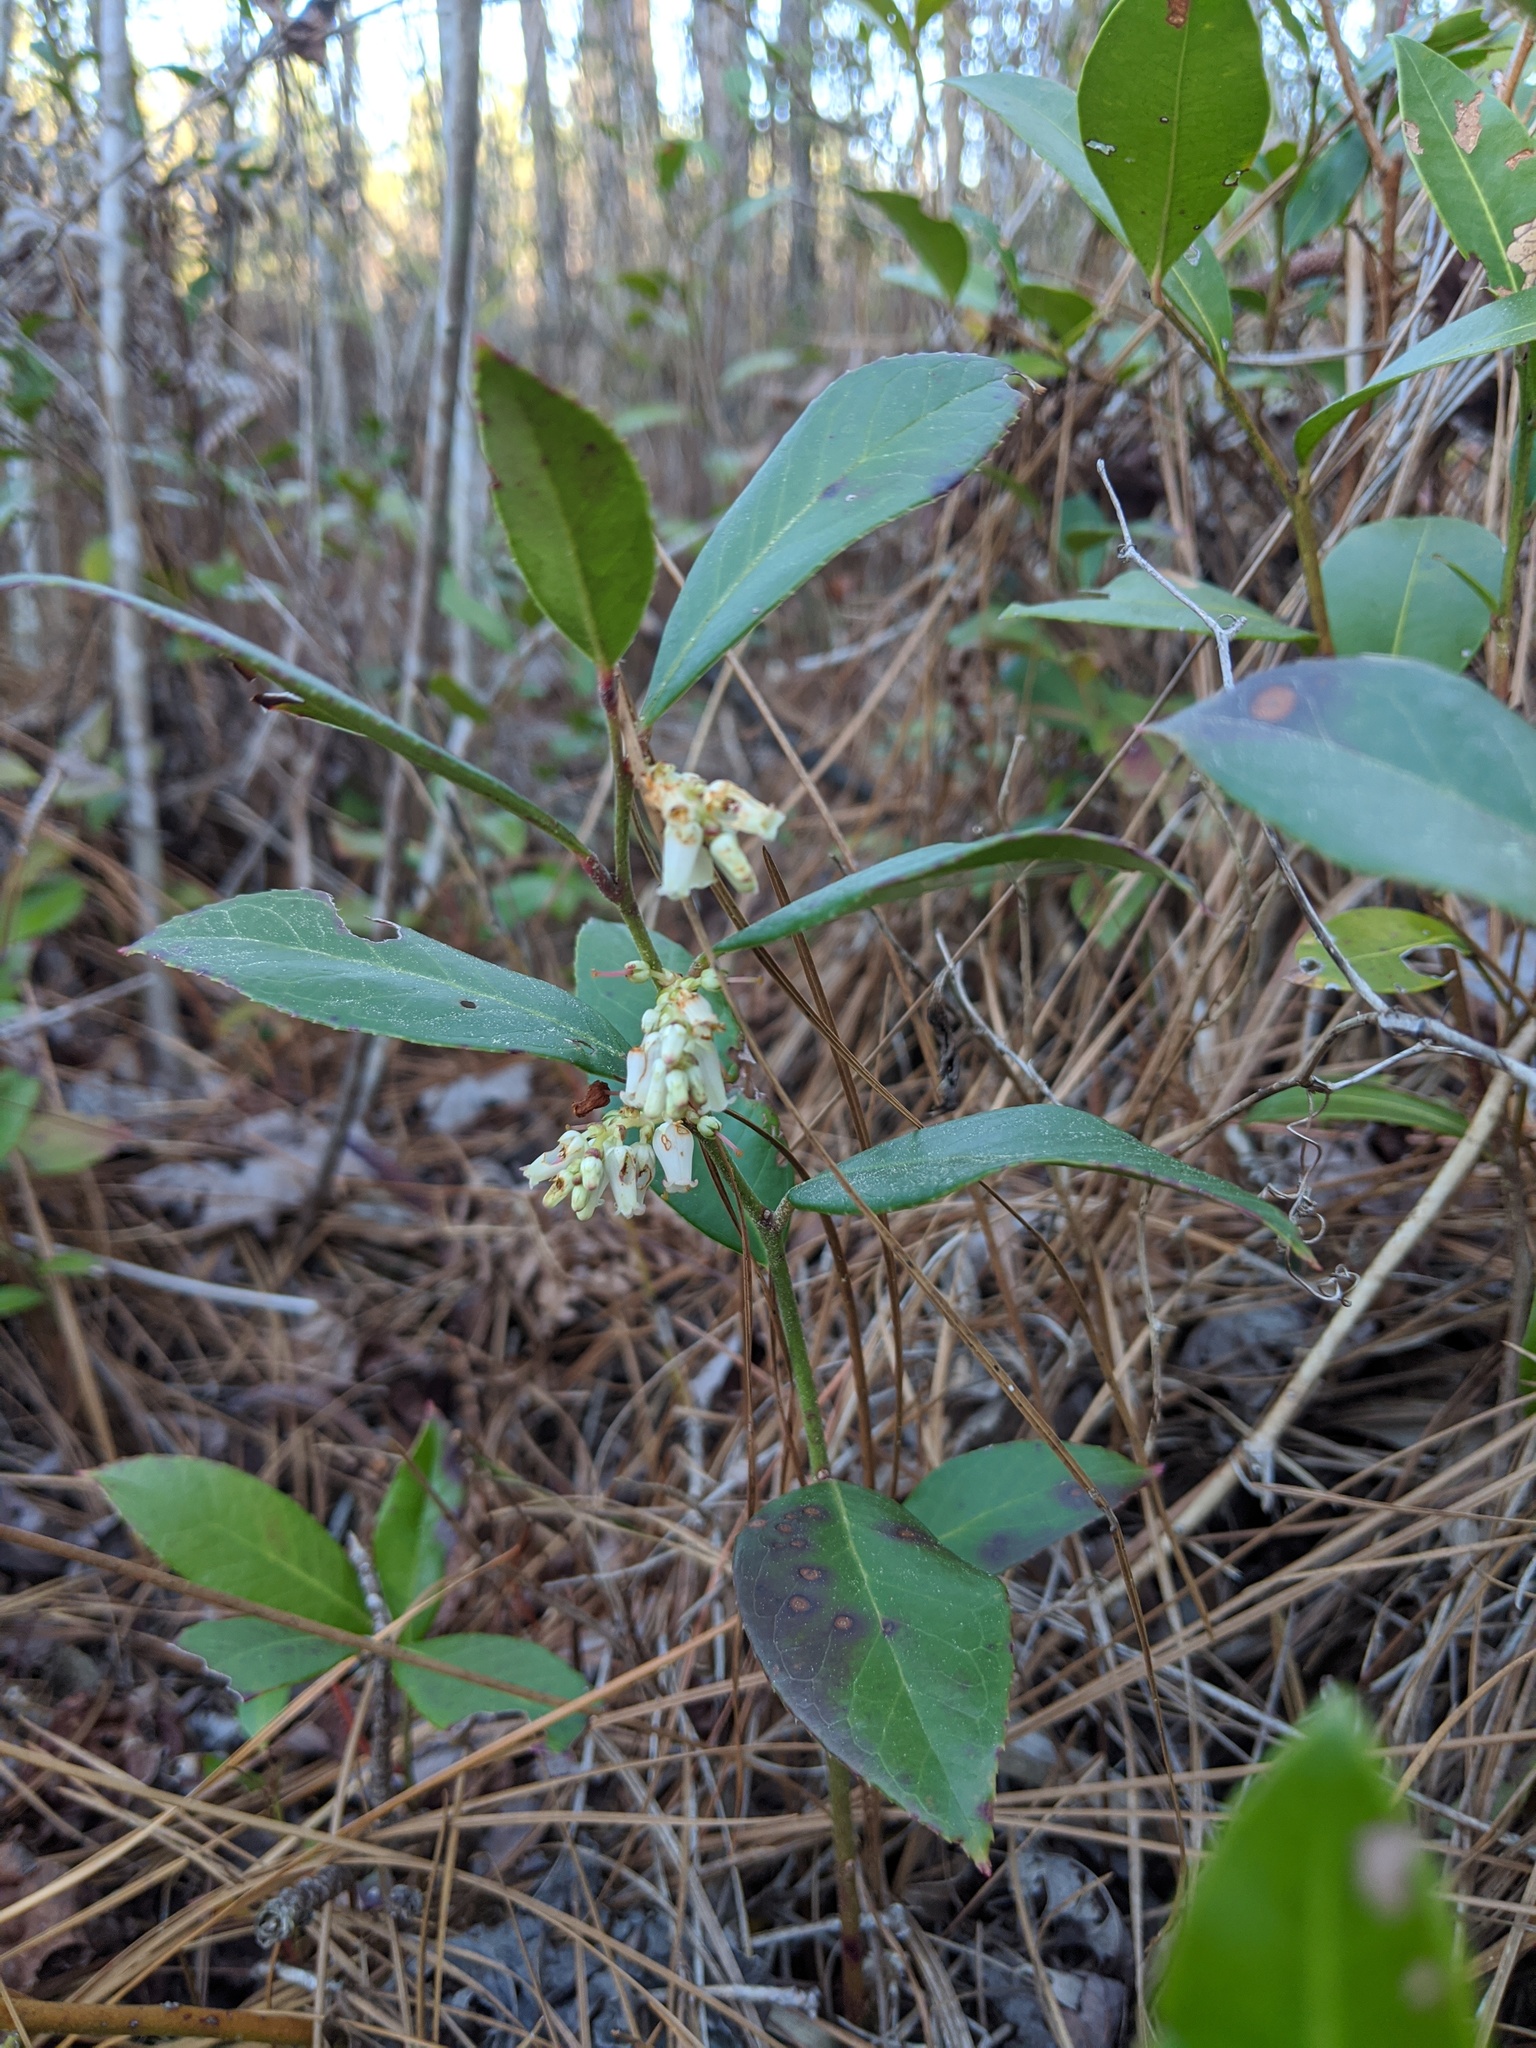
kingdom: Plantae
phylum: Tracheophyta
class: Magnoliopsida
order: Ericales
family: Ericaceae
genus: Leucothoe
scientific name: Leucothoe axillaris
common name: Leucothoe
